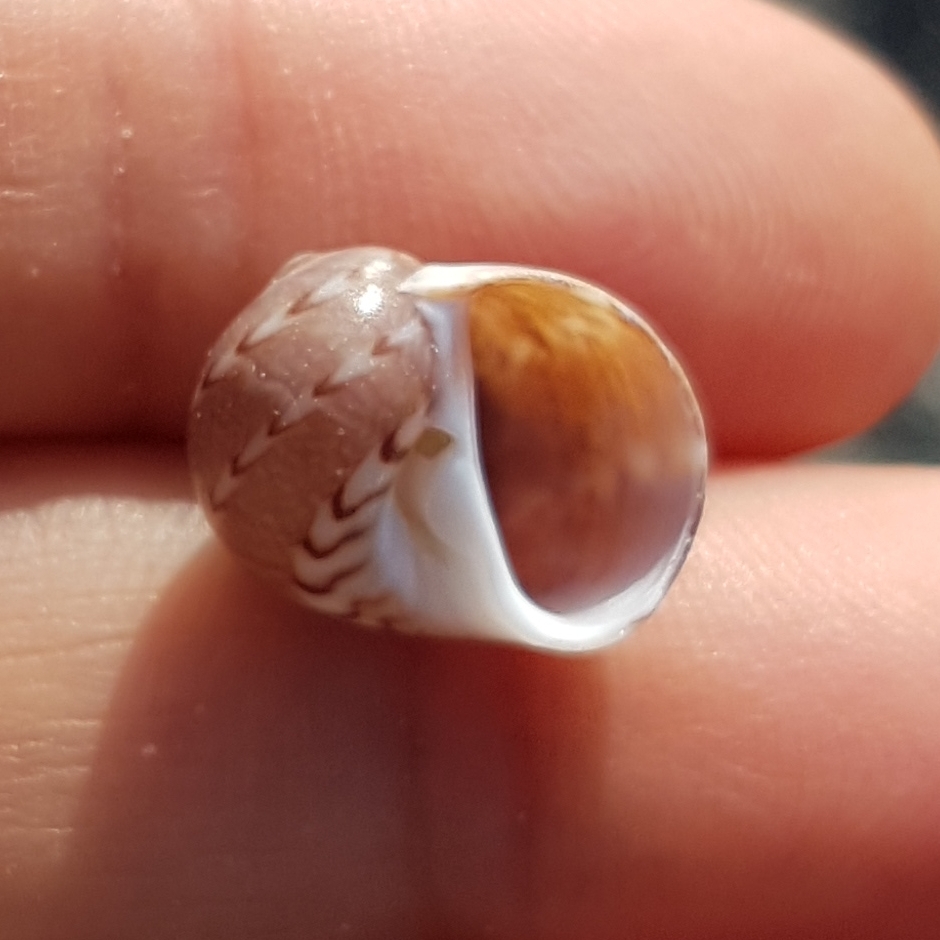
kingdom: Animalia
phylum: Mollusca
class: Gastropoda
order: Littorinimorpha
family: Naticidae
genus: Notocochlis
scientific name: Notocochlis dillwynii
